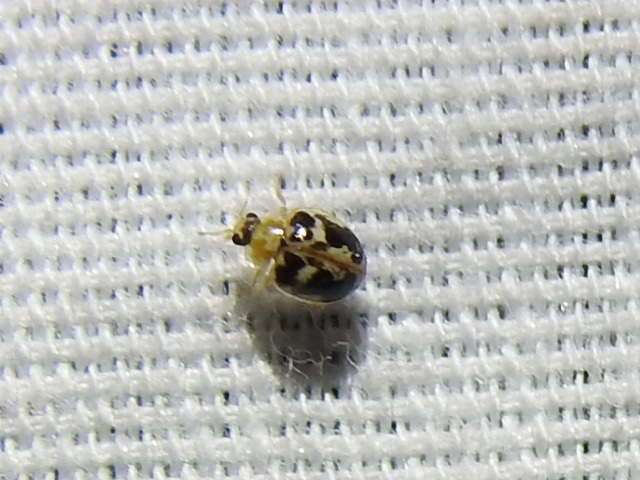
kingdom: Animalia
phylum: Arthropoda
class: Insecta
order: Coleoptera
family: Coccinellidae
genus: Psyllobora
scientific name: Psyllobora renifer
